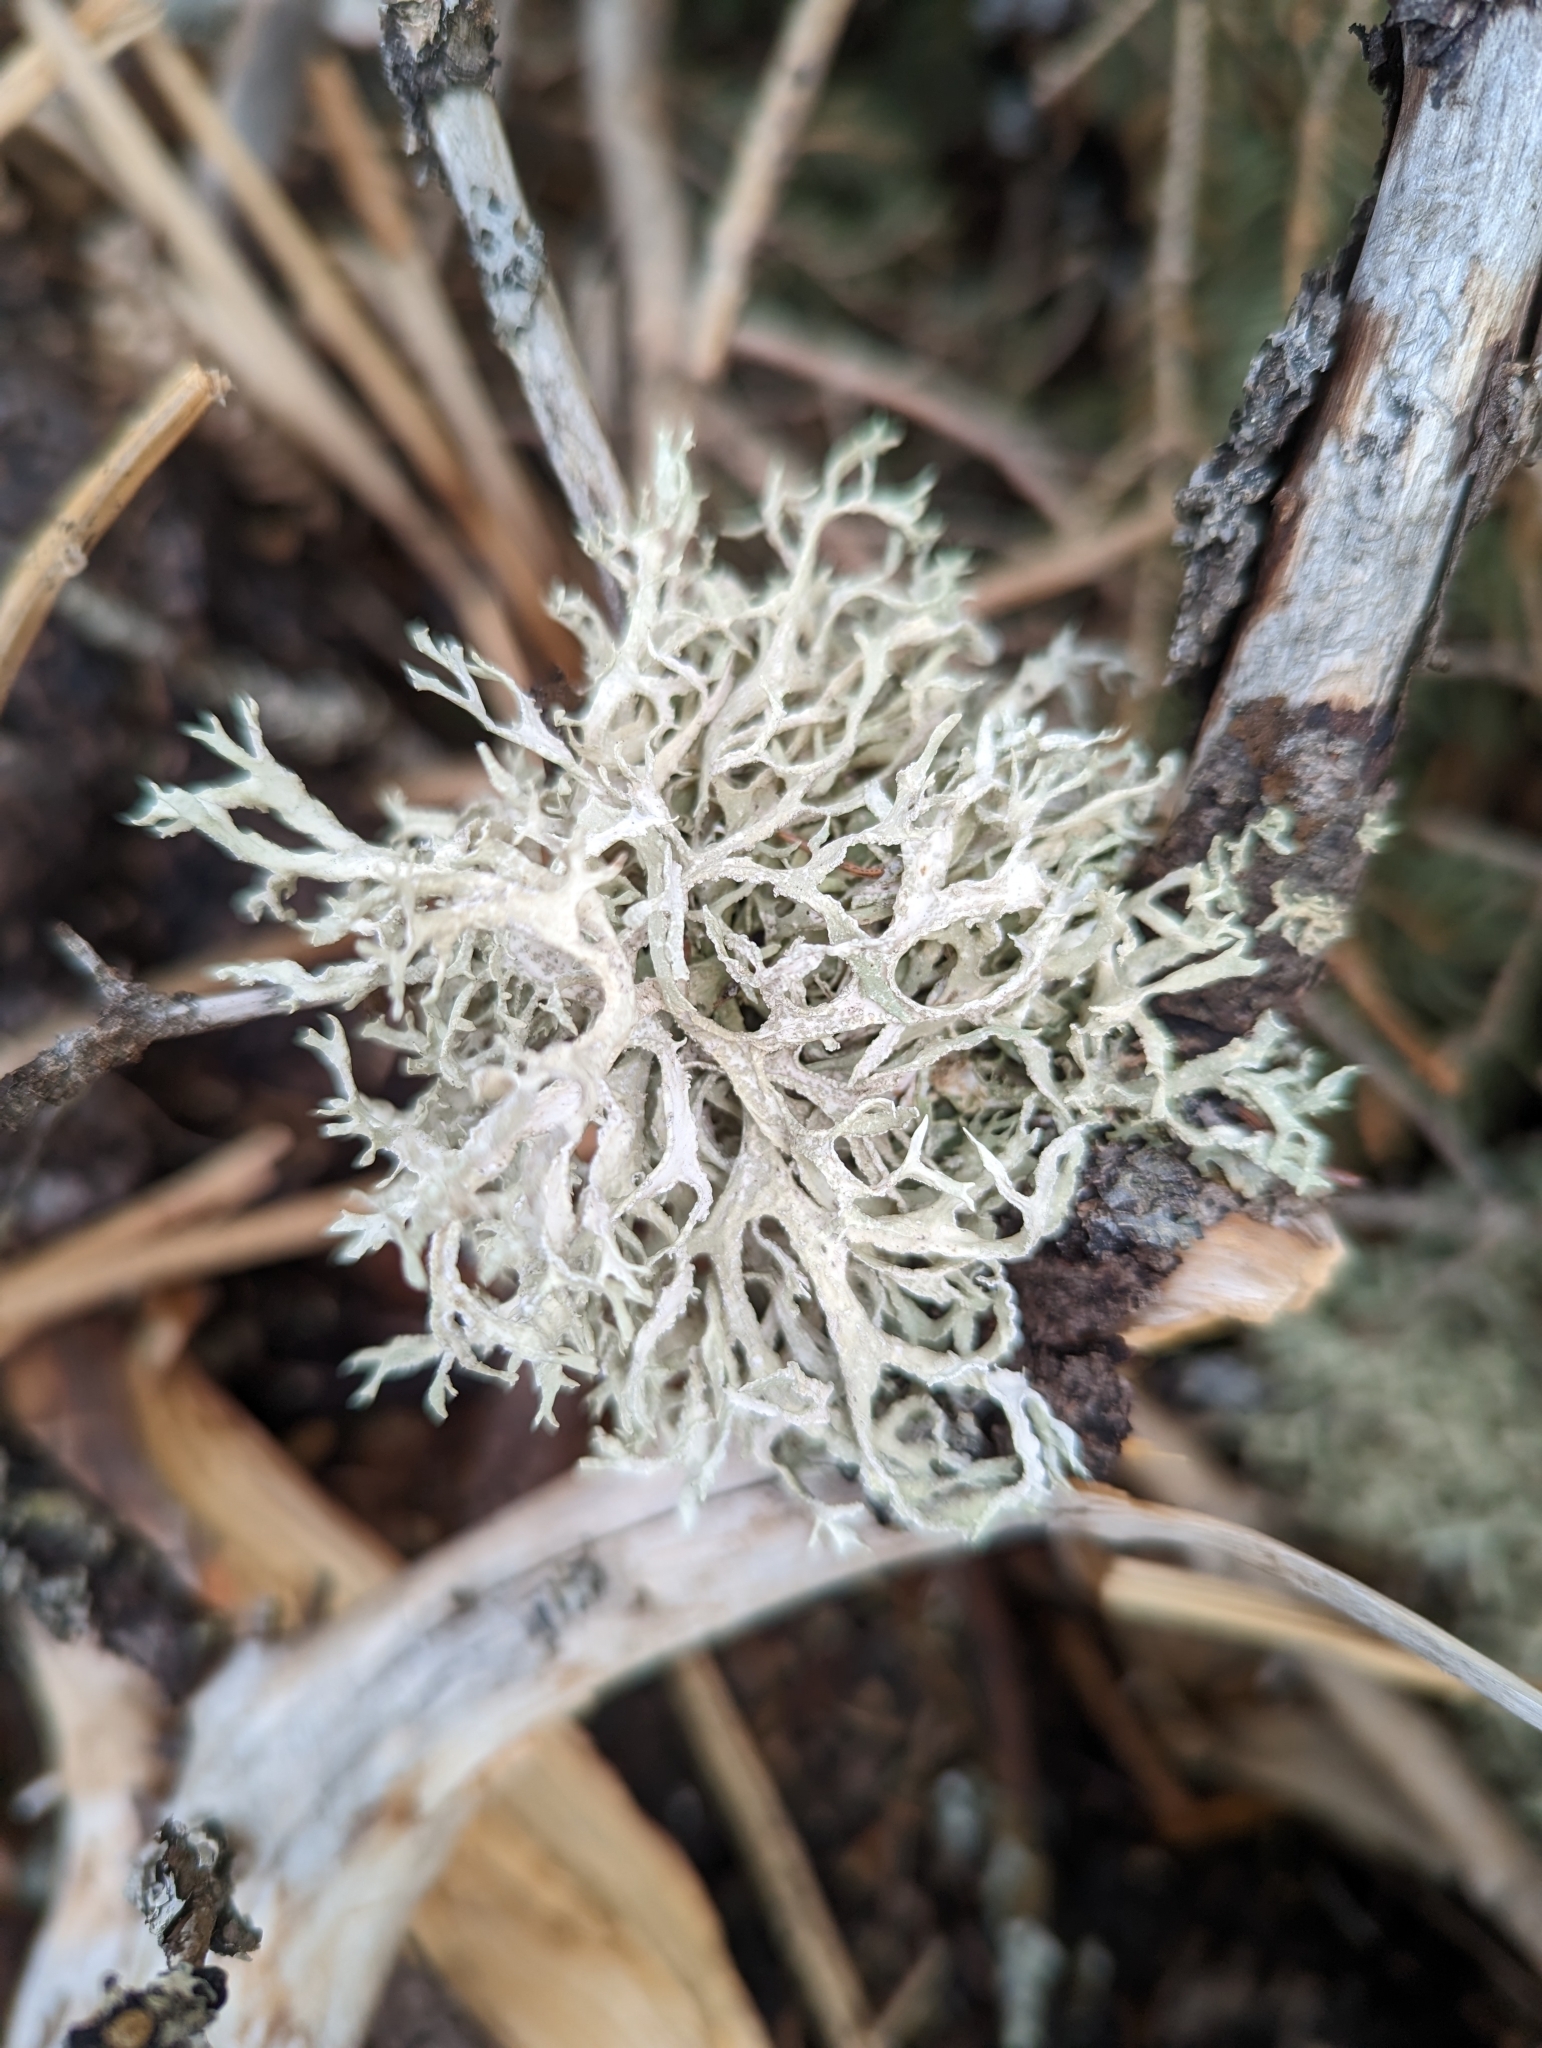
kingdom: Fungi
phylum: Ascomycota
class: Lecanoromycetes
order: Lecanorales
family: Parmeliaceae
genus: Evernia
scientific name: Evernia prunastri
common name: Oak moss
